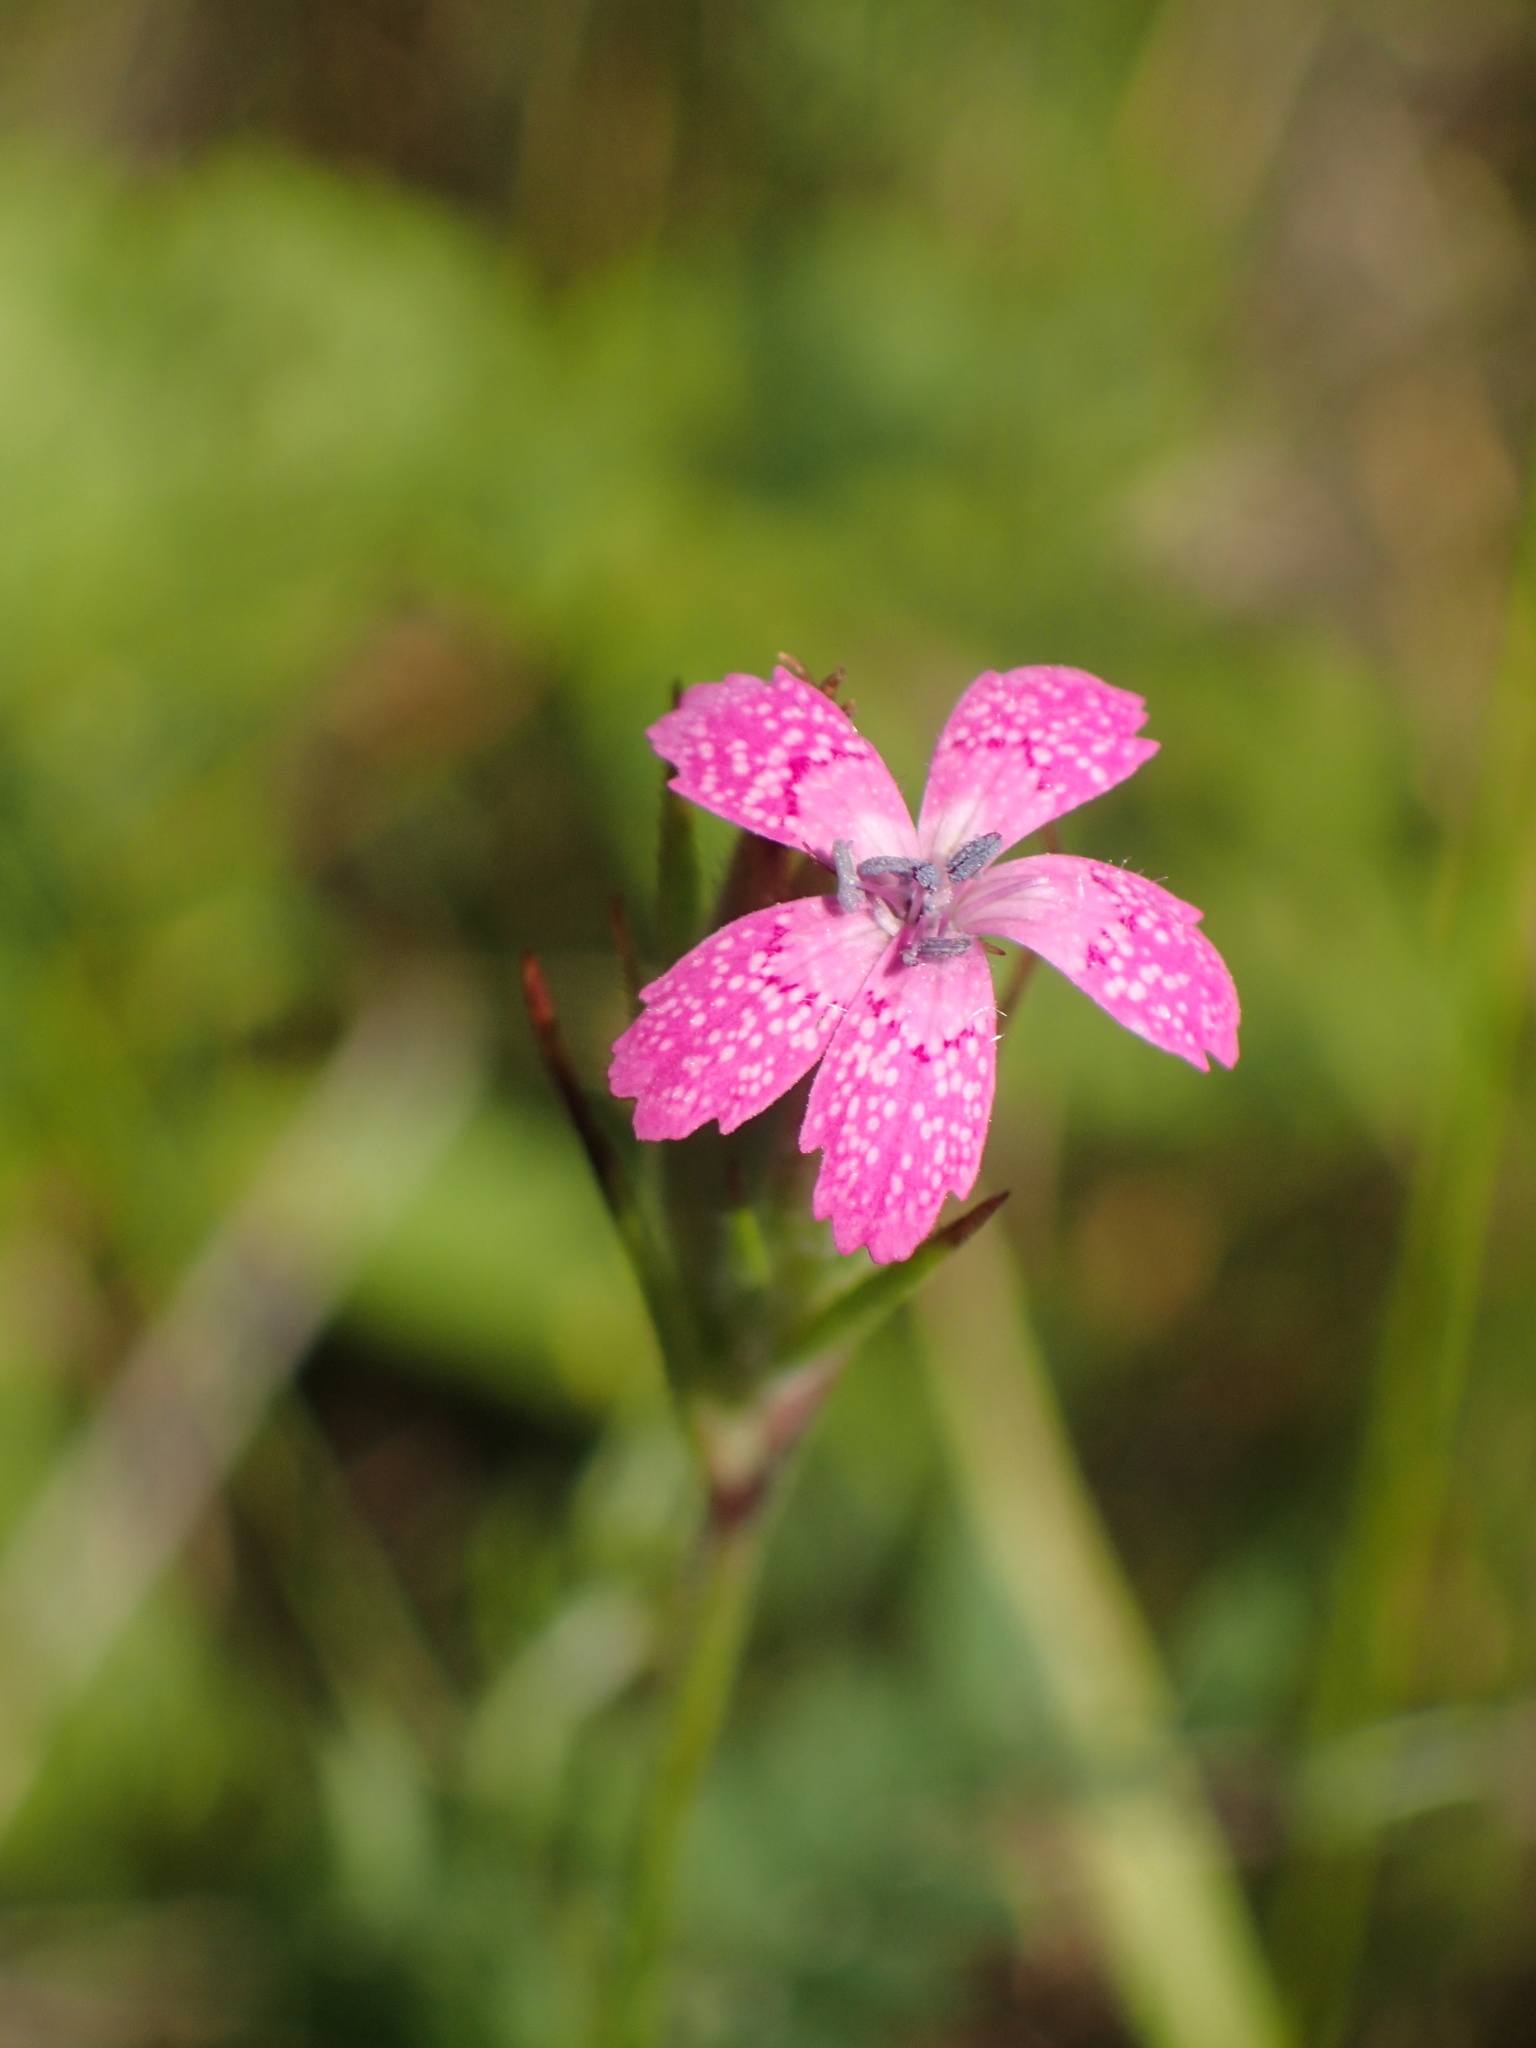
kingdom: Plantae
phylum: Tracheophyta
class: Magnoliopsida
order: Caryophyllales
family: Caryophyllaceae
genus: Dianthus
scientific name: Dianthus armeria
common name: Deptford pink
